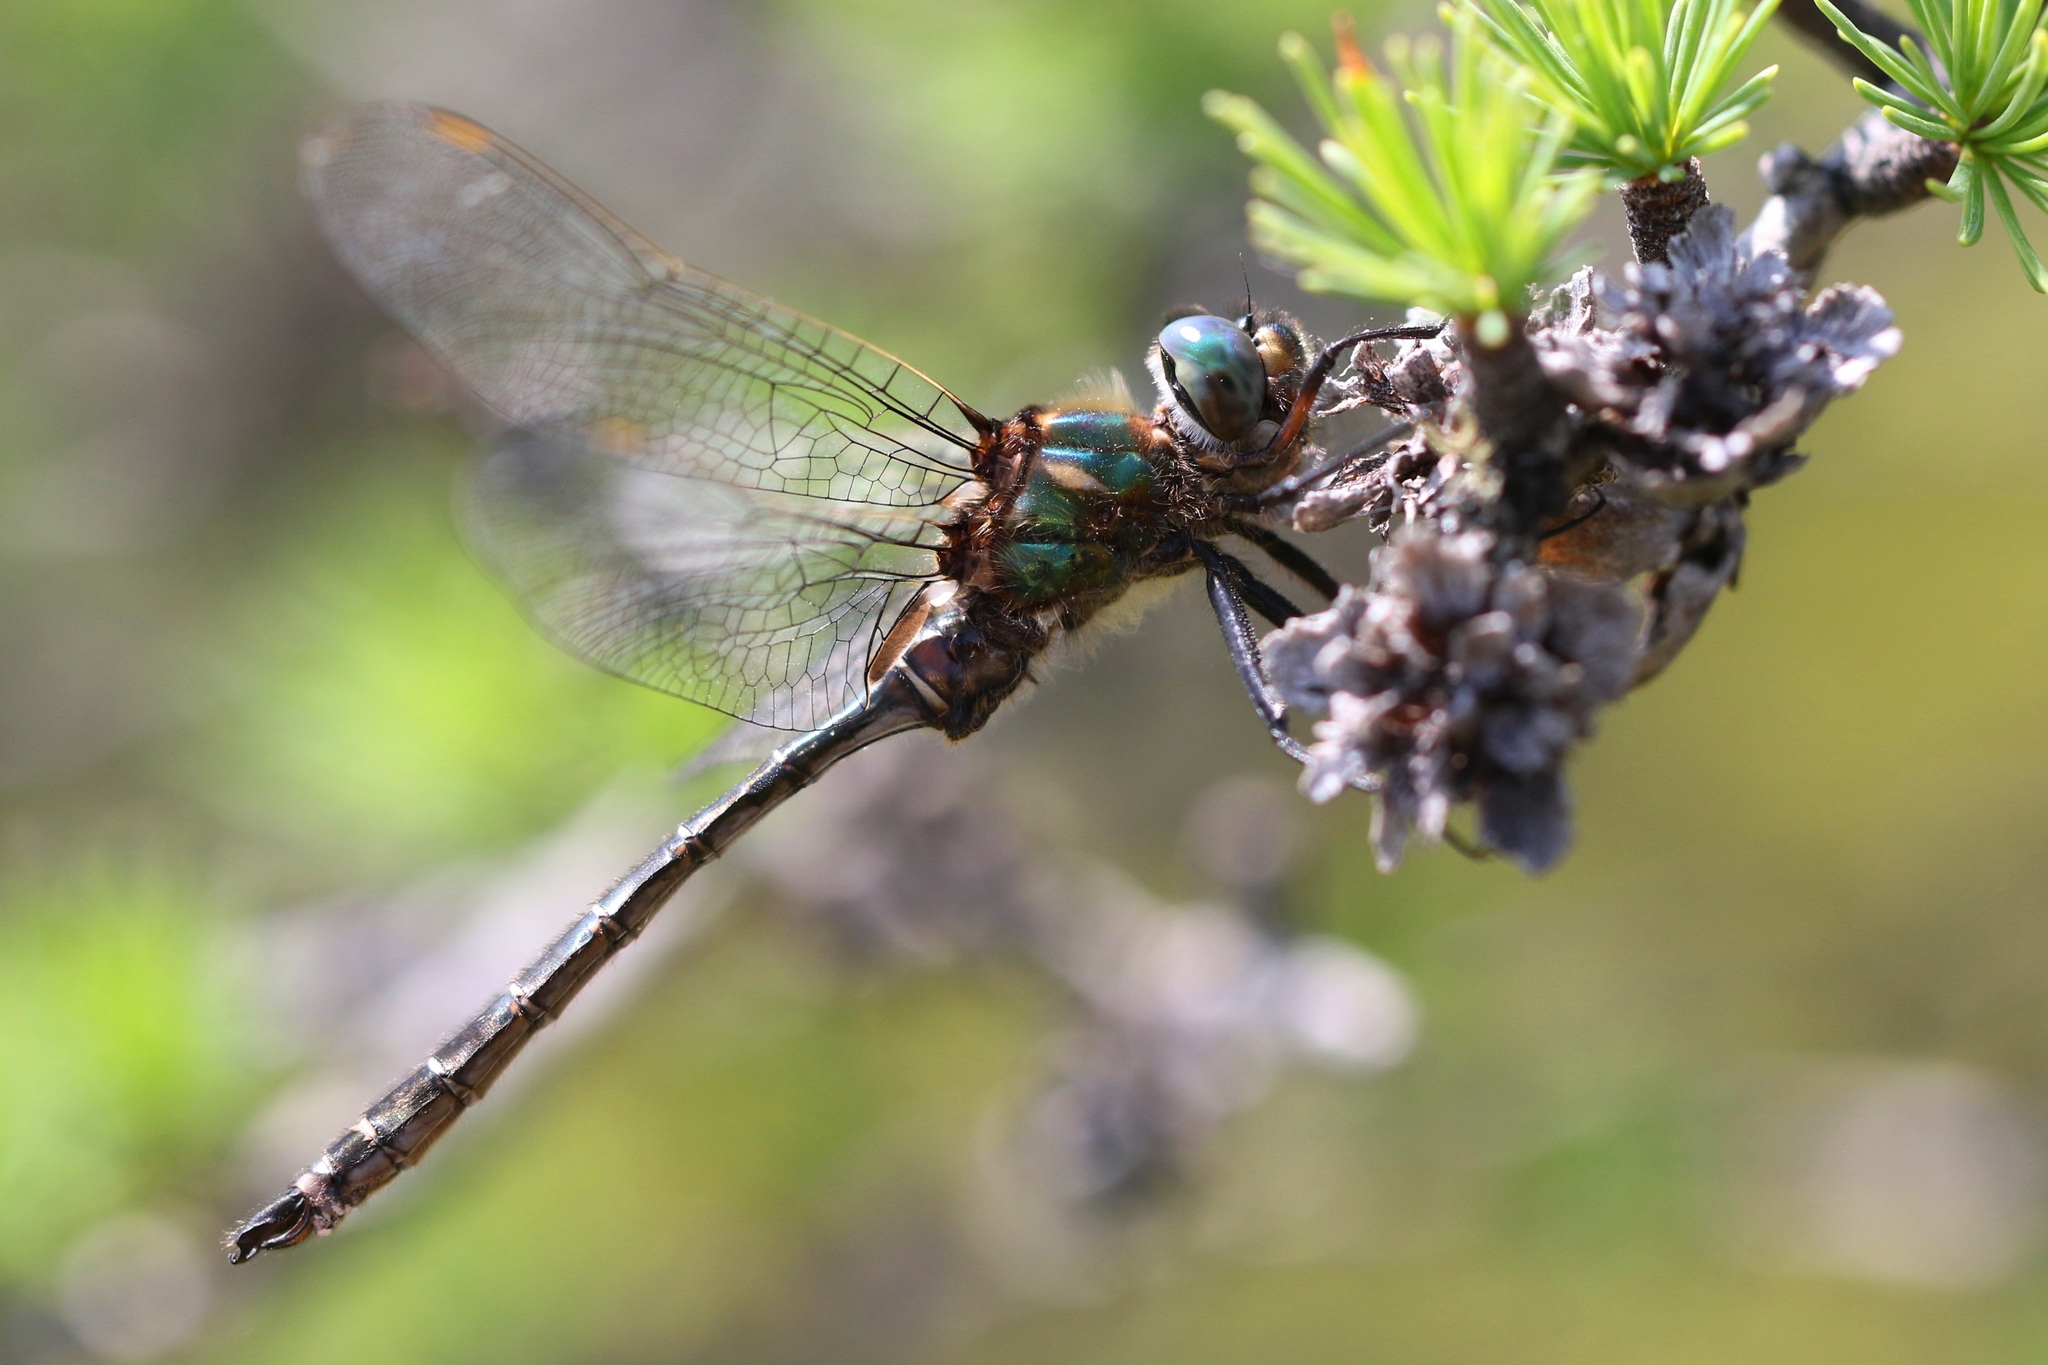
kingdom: Animalia
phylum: Arthropoda
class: Insecta
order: Odonata
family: Corduliidae
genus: Somatochlora
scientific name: Somatochlora albicincta
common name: Ringed emerald
